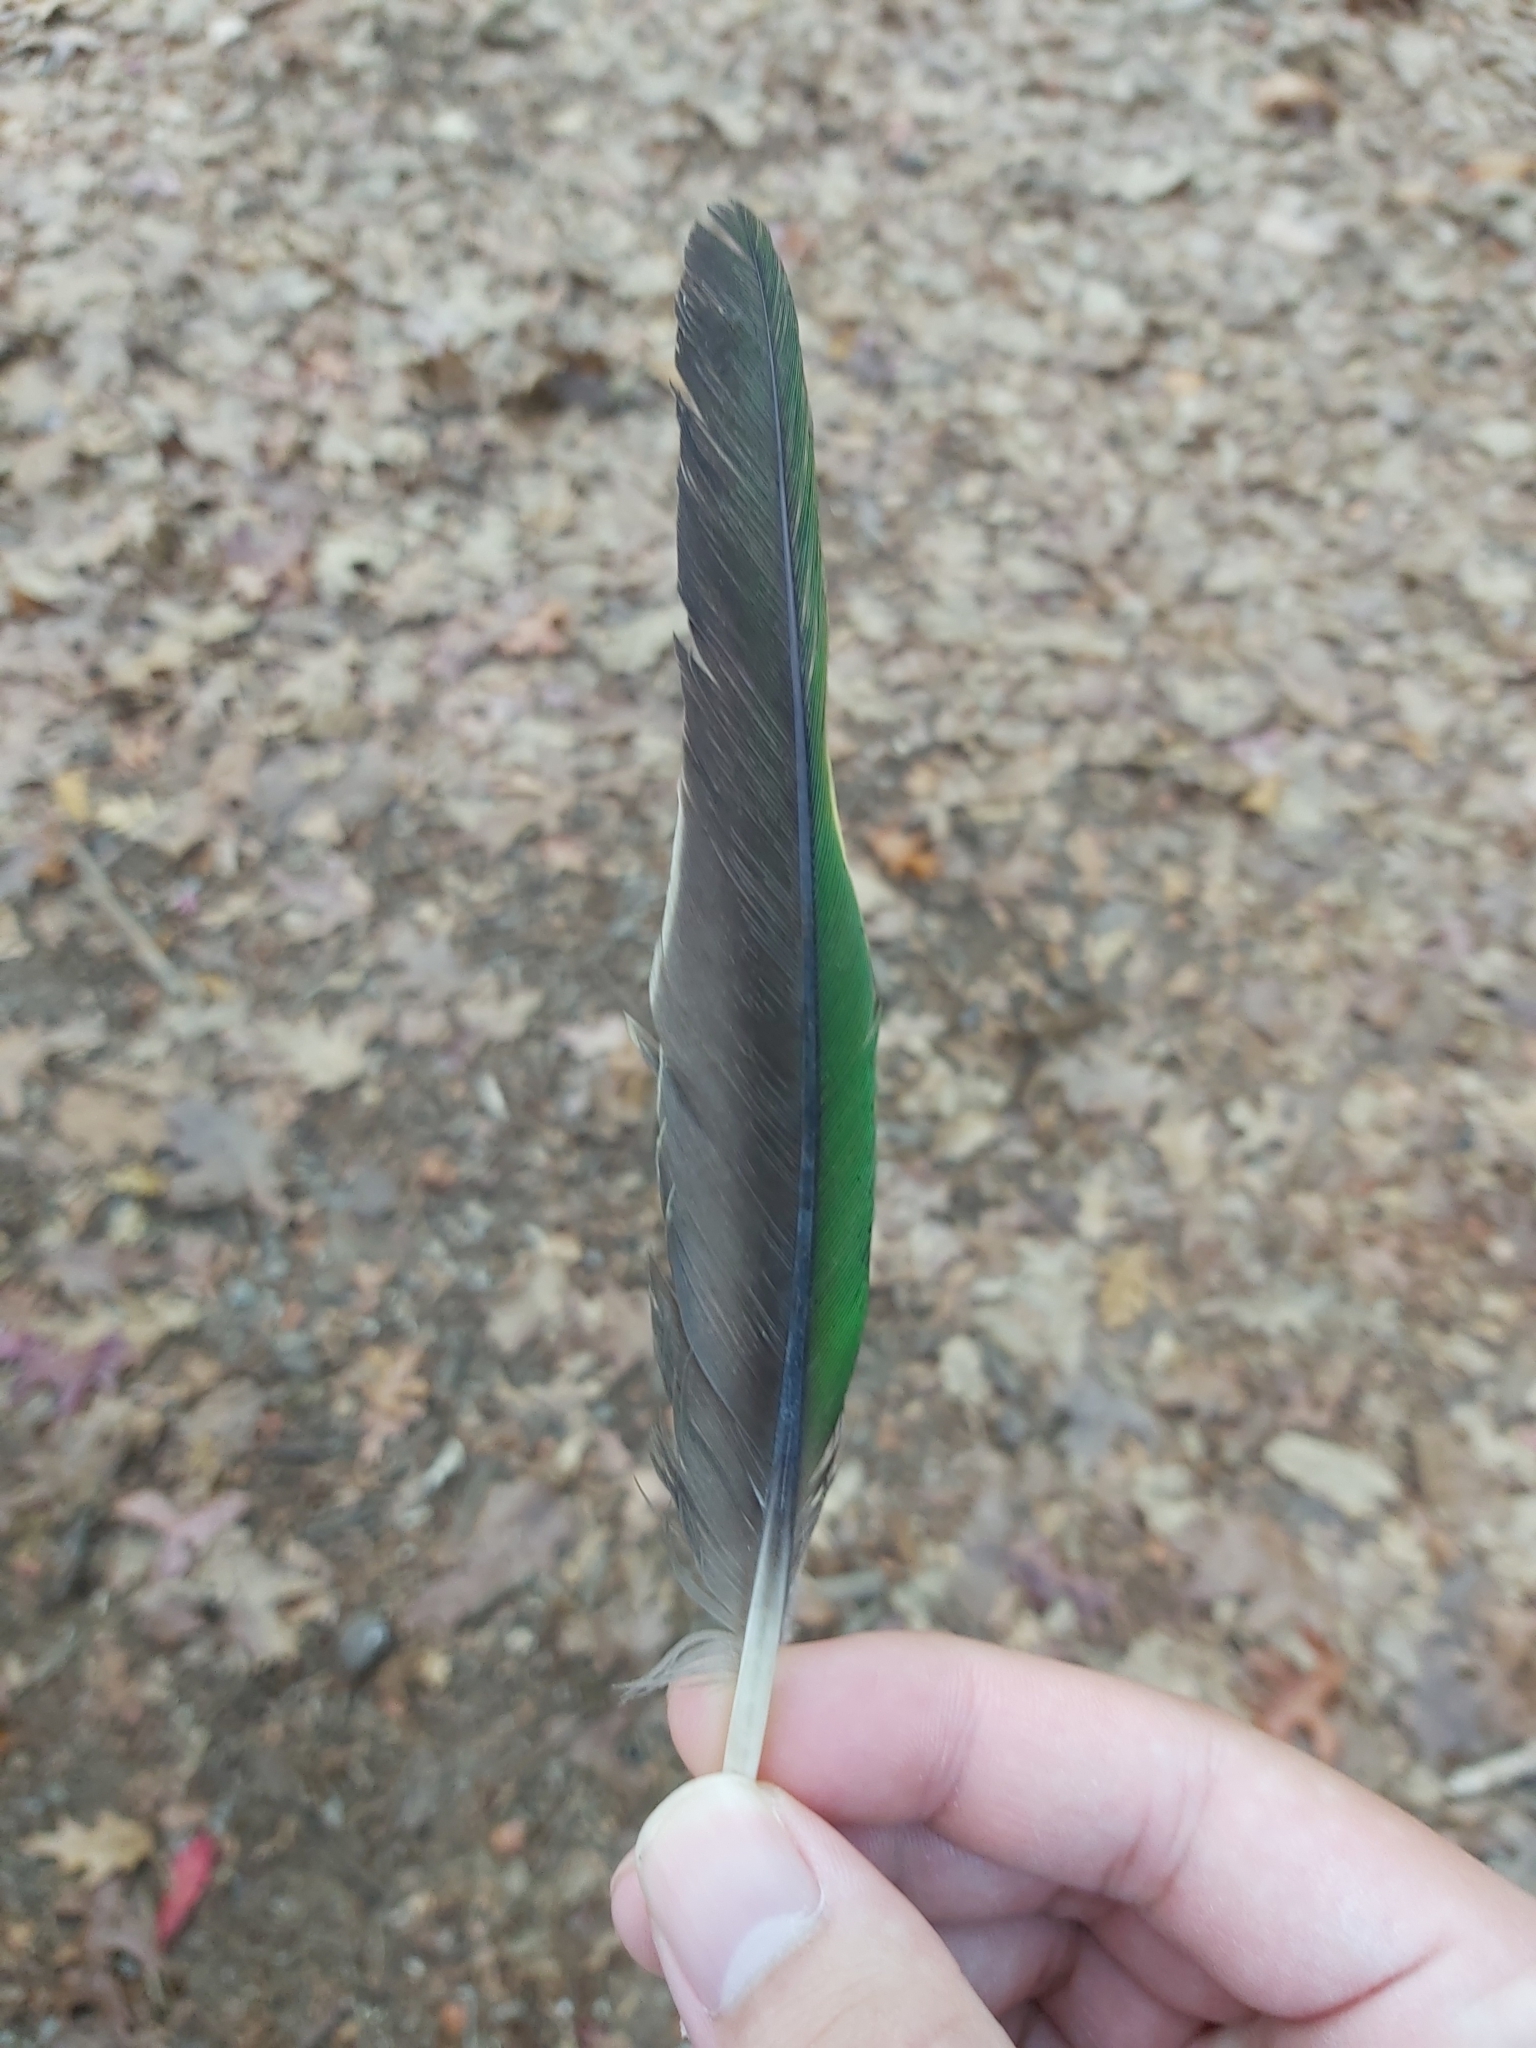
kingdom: Animalia
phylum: Chordata
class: Aves
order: Psittaciformes
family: Psittacidae
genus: Alisterus
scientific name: Alisterus scapularis
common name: Australian king parrot
